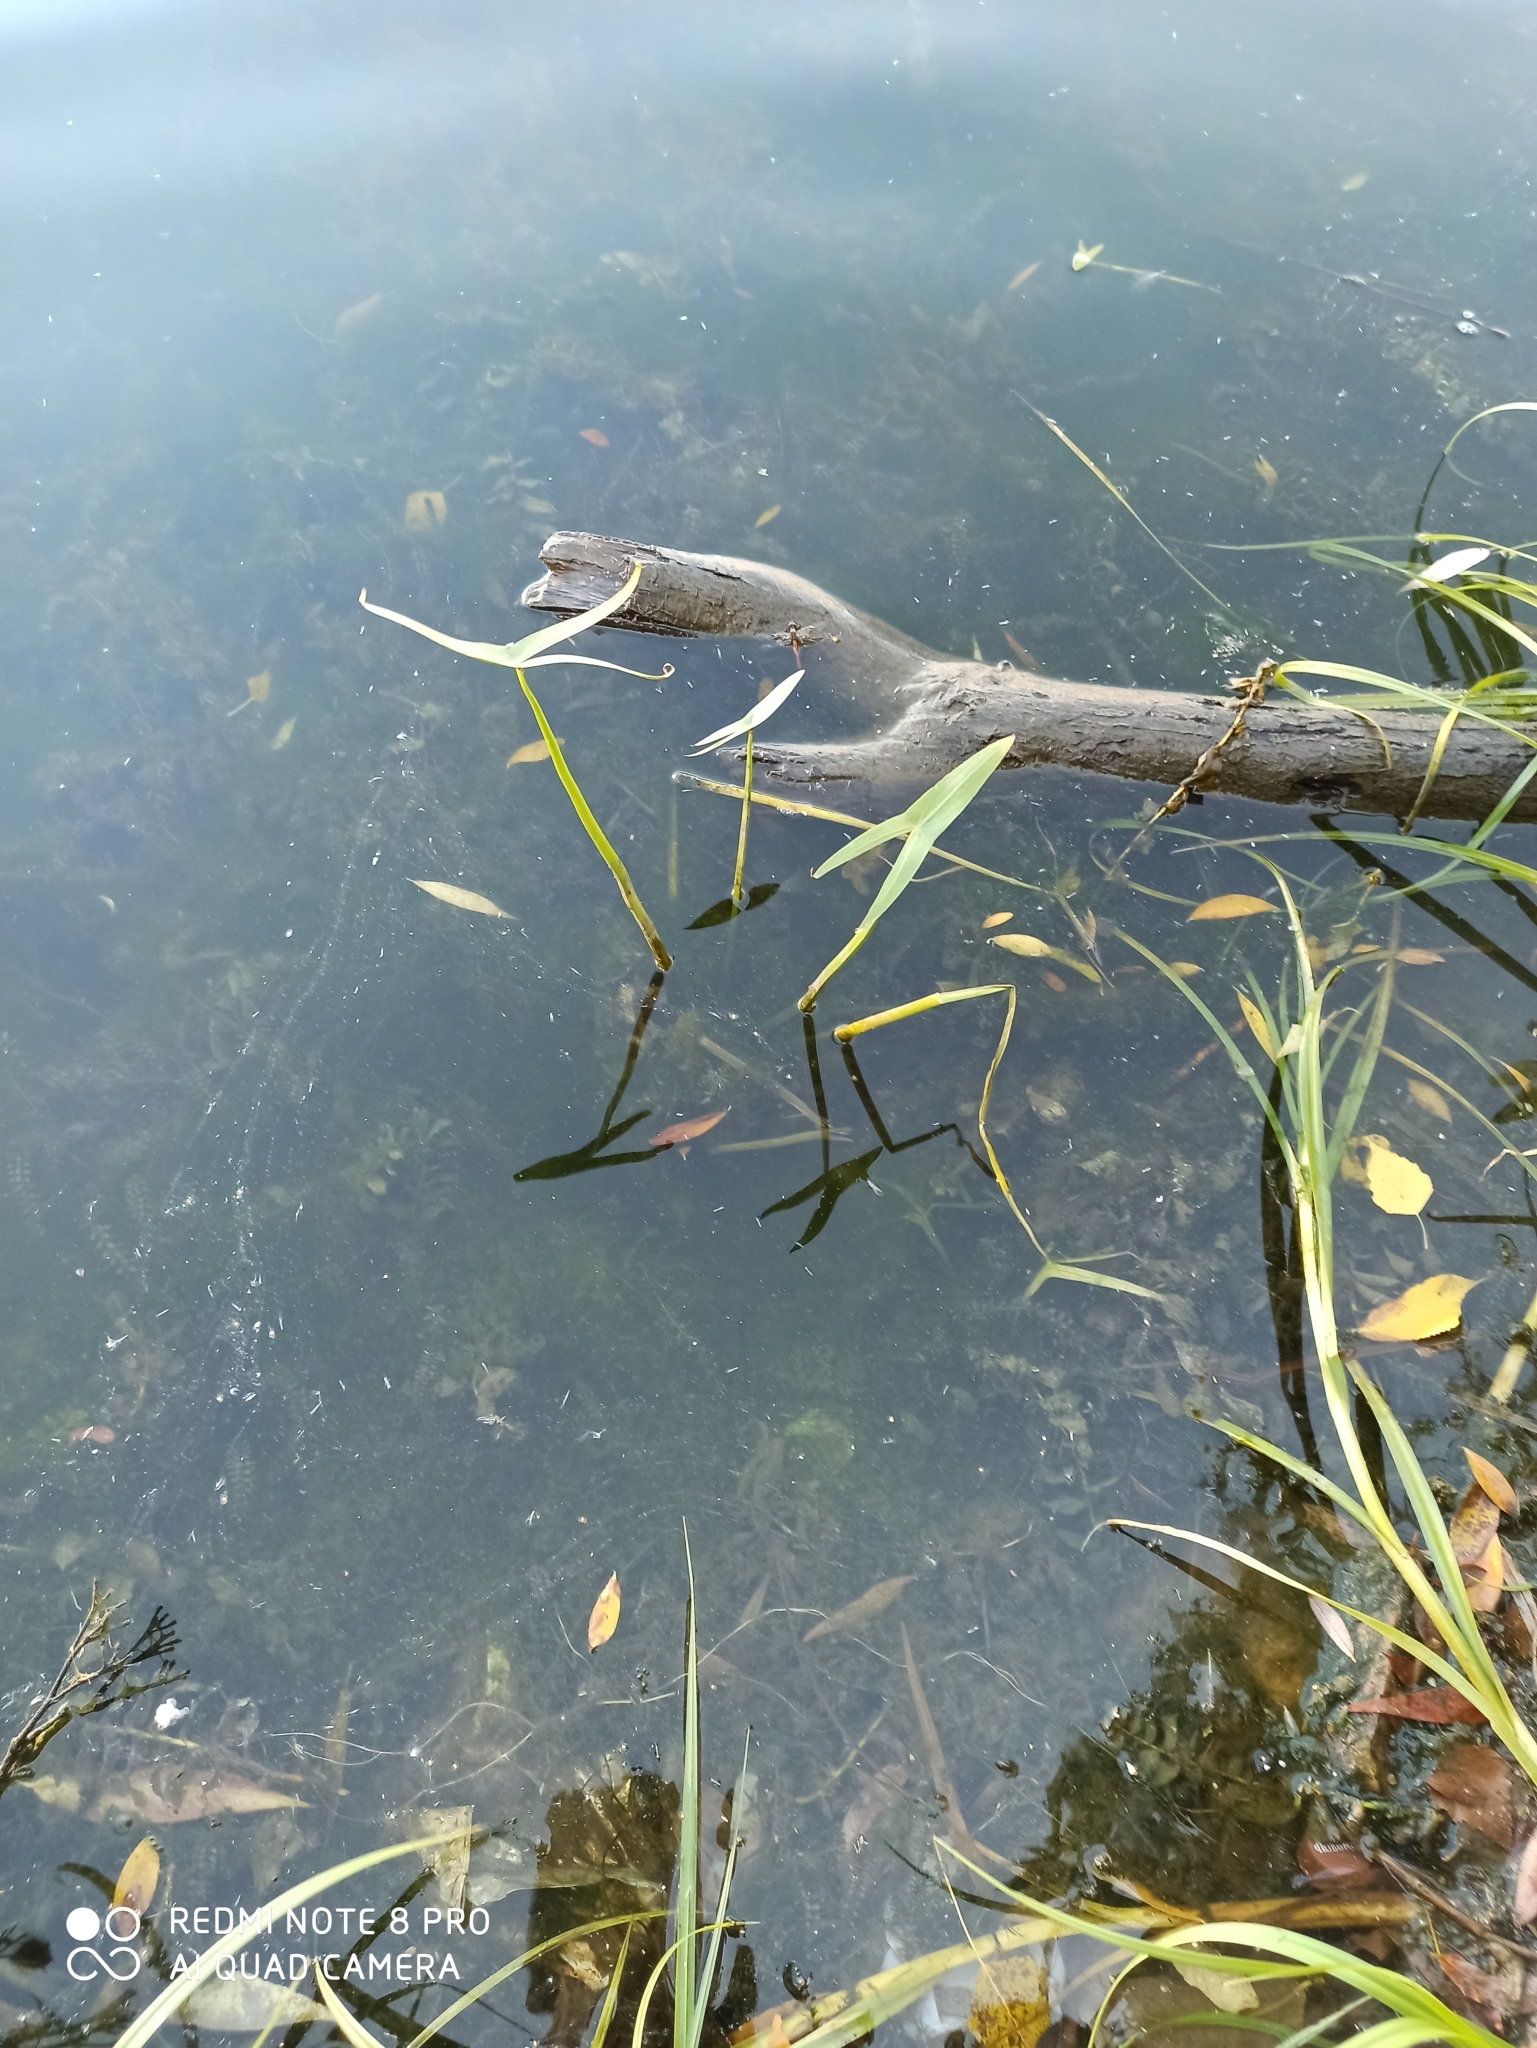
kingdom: Plantae
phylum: Tracheophyta
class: Liliopsida
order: Alismatales
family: Alismataceae
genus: Sagittaria
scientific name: Sagittaria sagittifolia
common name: Arrowhead
